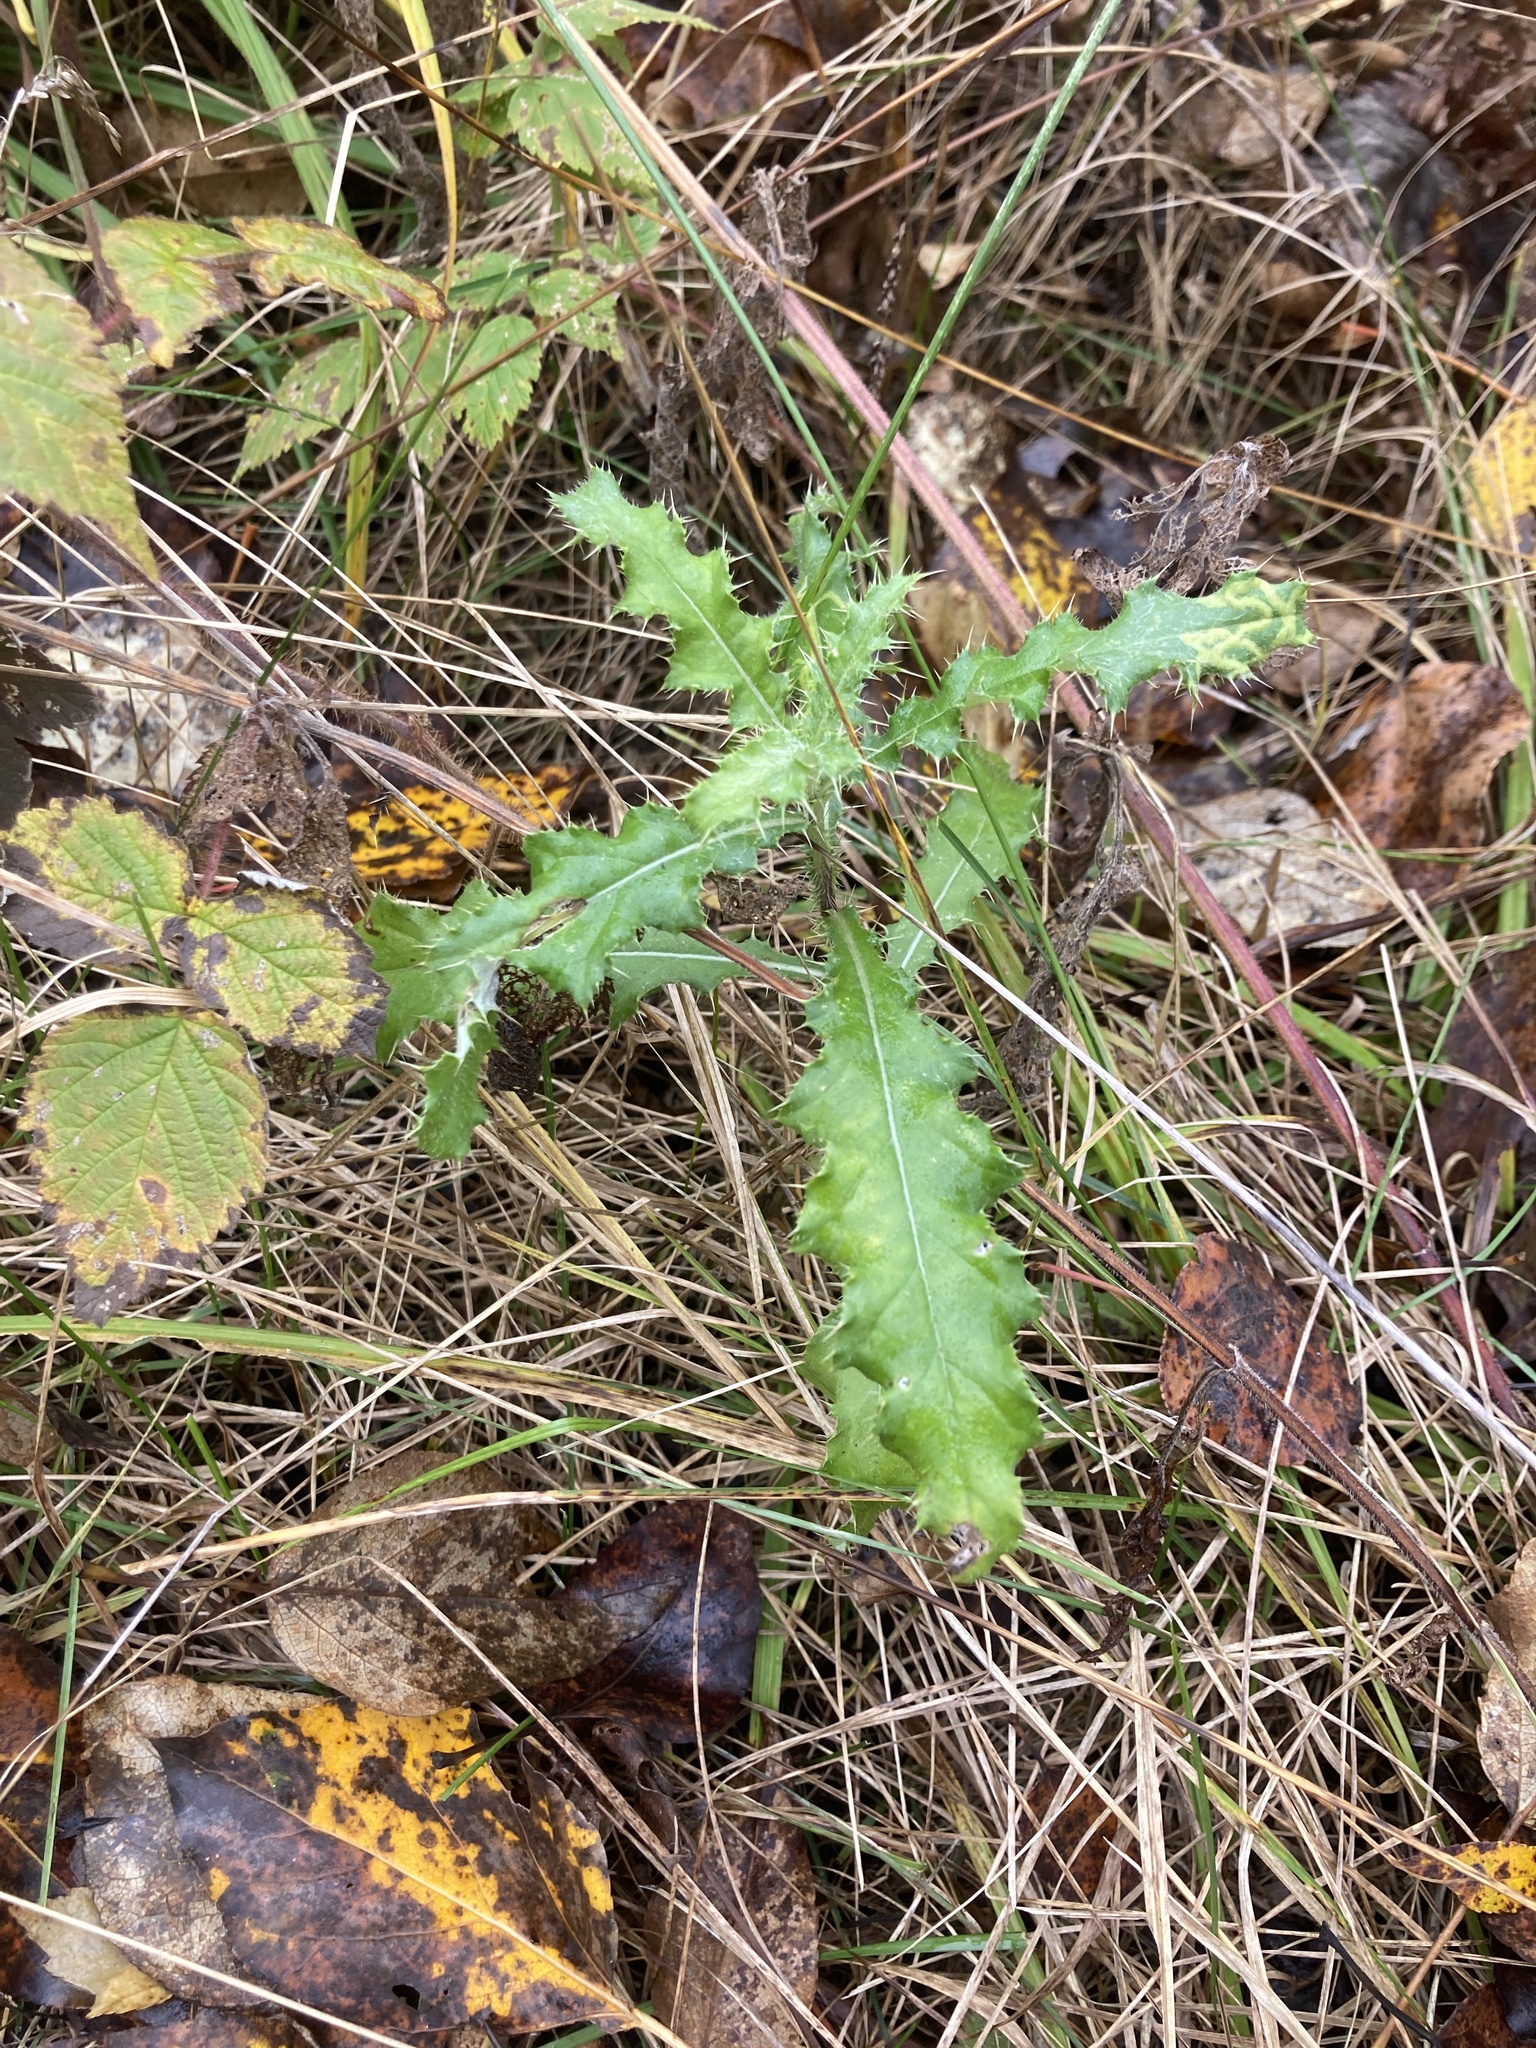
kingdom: Plantae
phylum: Tracheophyta
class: Magnoliopsida
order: Asterales
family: Asteraceae
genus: Cirsium
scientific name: Cirsium arvense
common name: Creeping thistle
